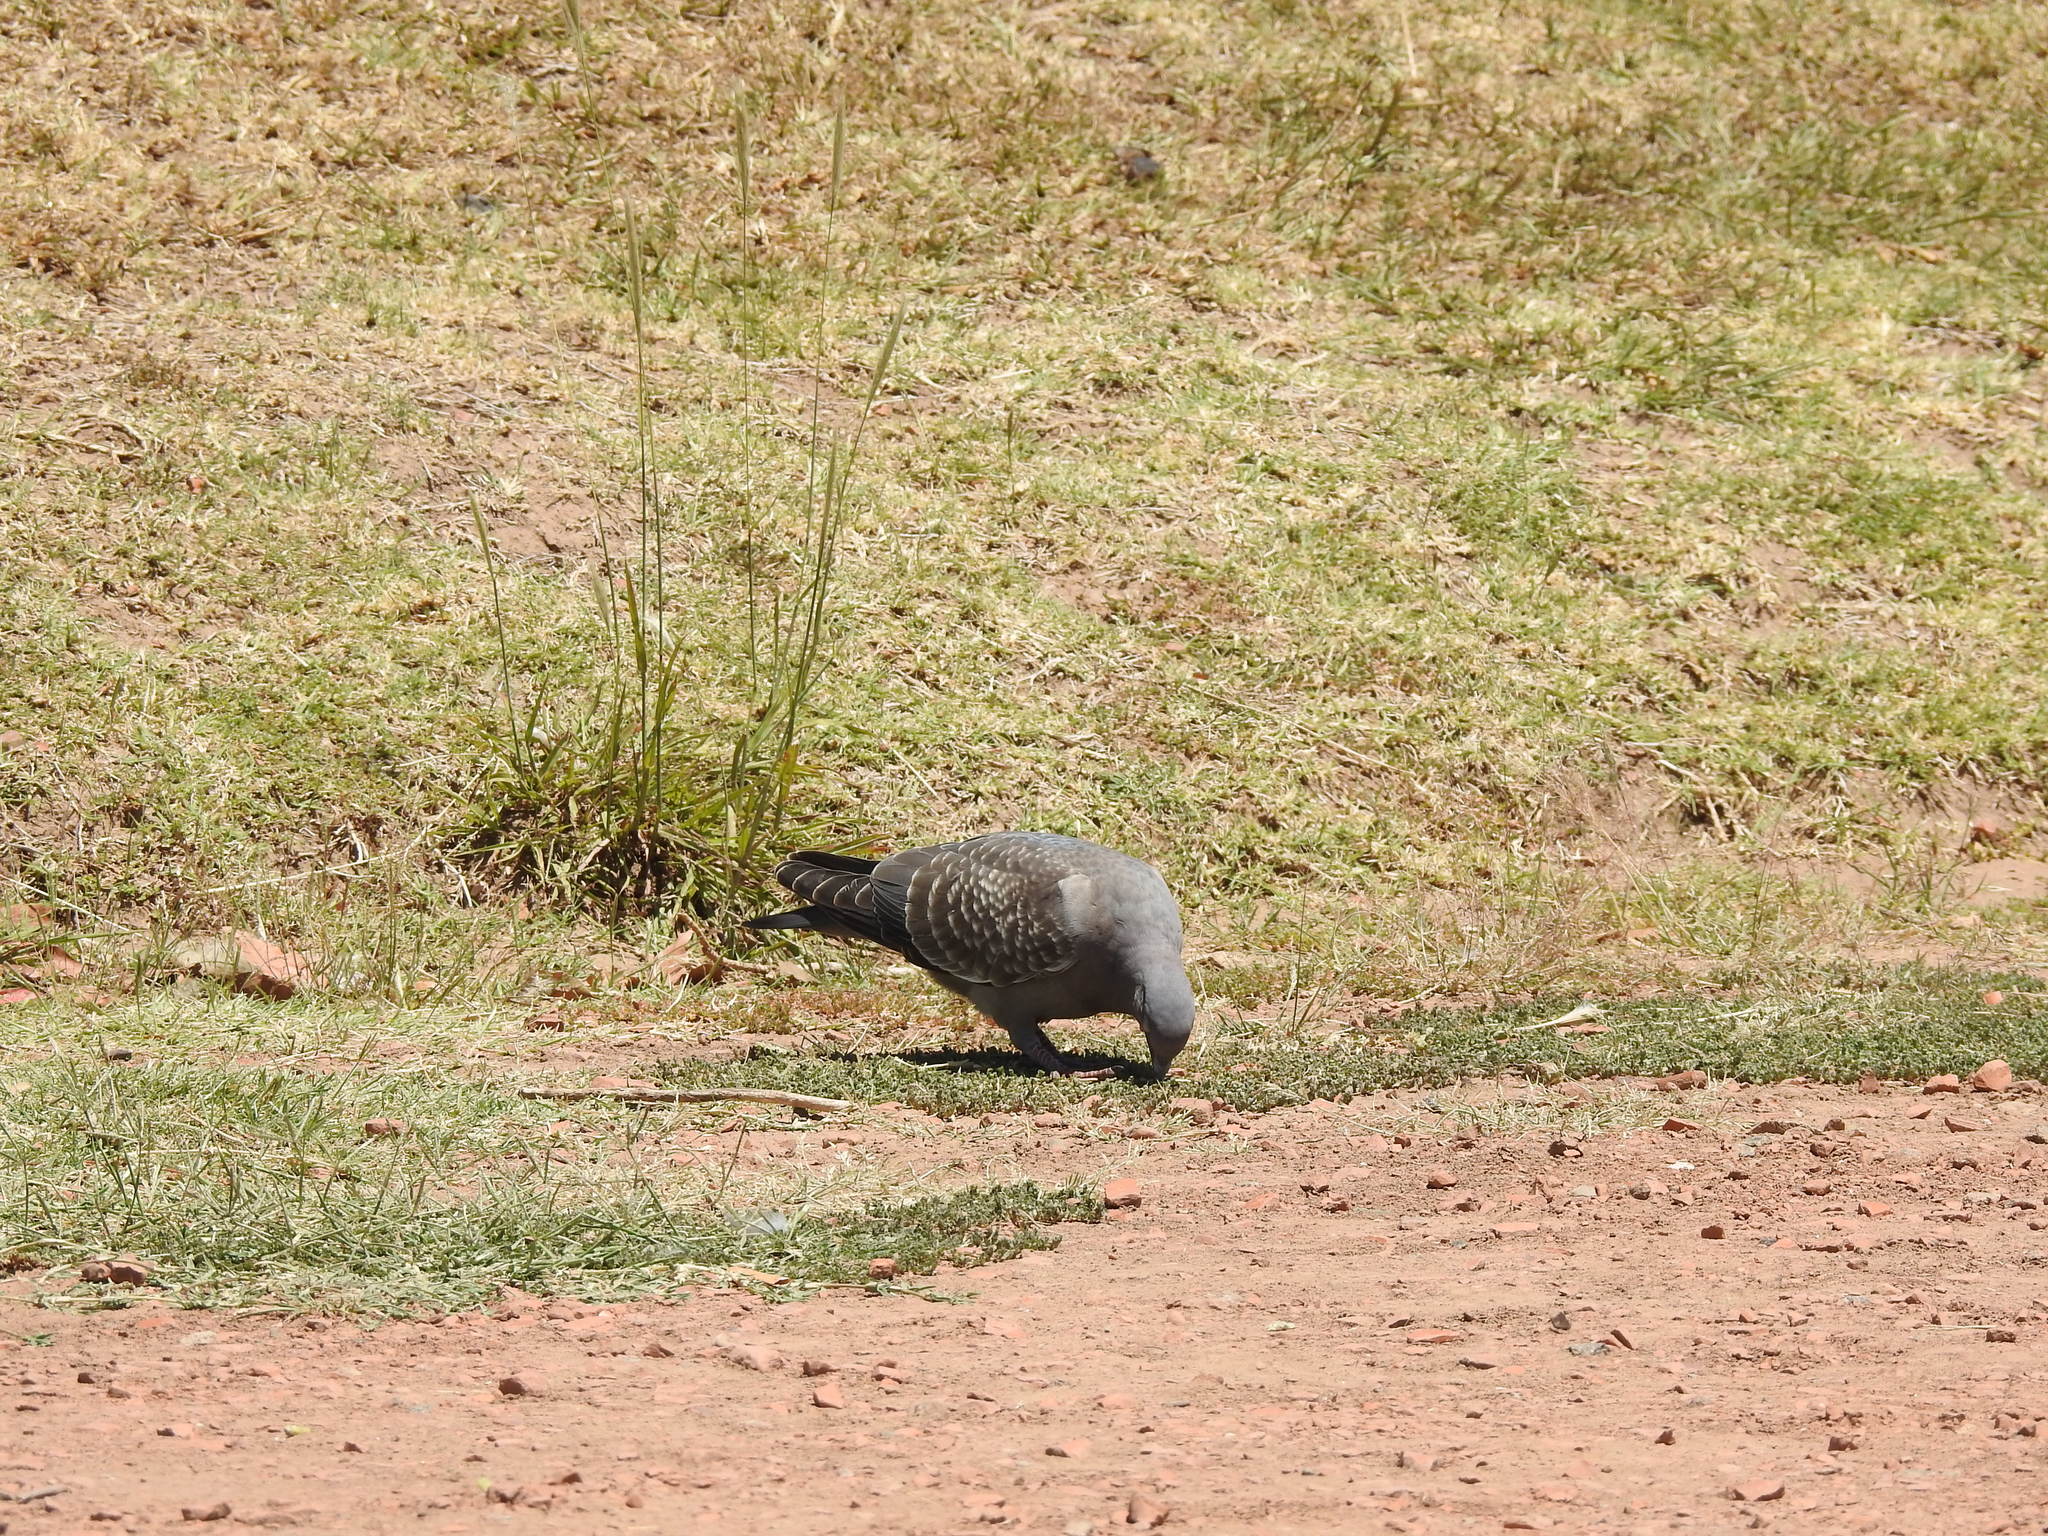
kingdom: Animalia
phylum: Chordata
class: Aves
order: Columbiformes
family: Columbidae
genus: Patagioenas
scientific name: Patagioenas maculosa
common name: Spot-winged pigeon
